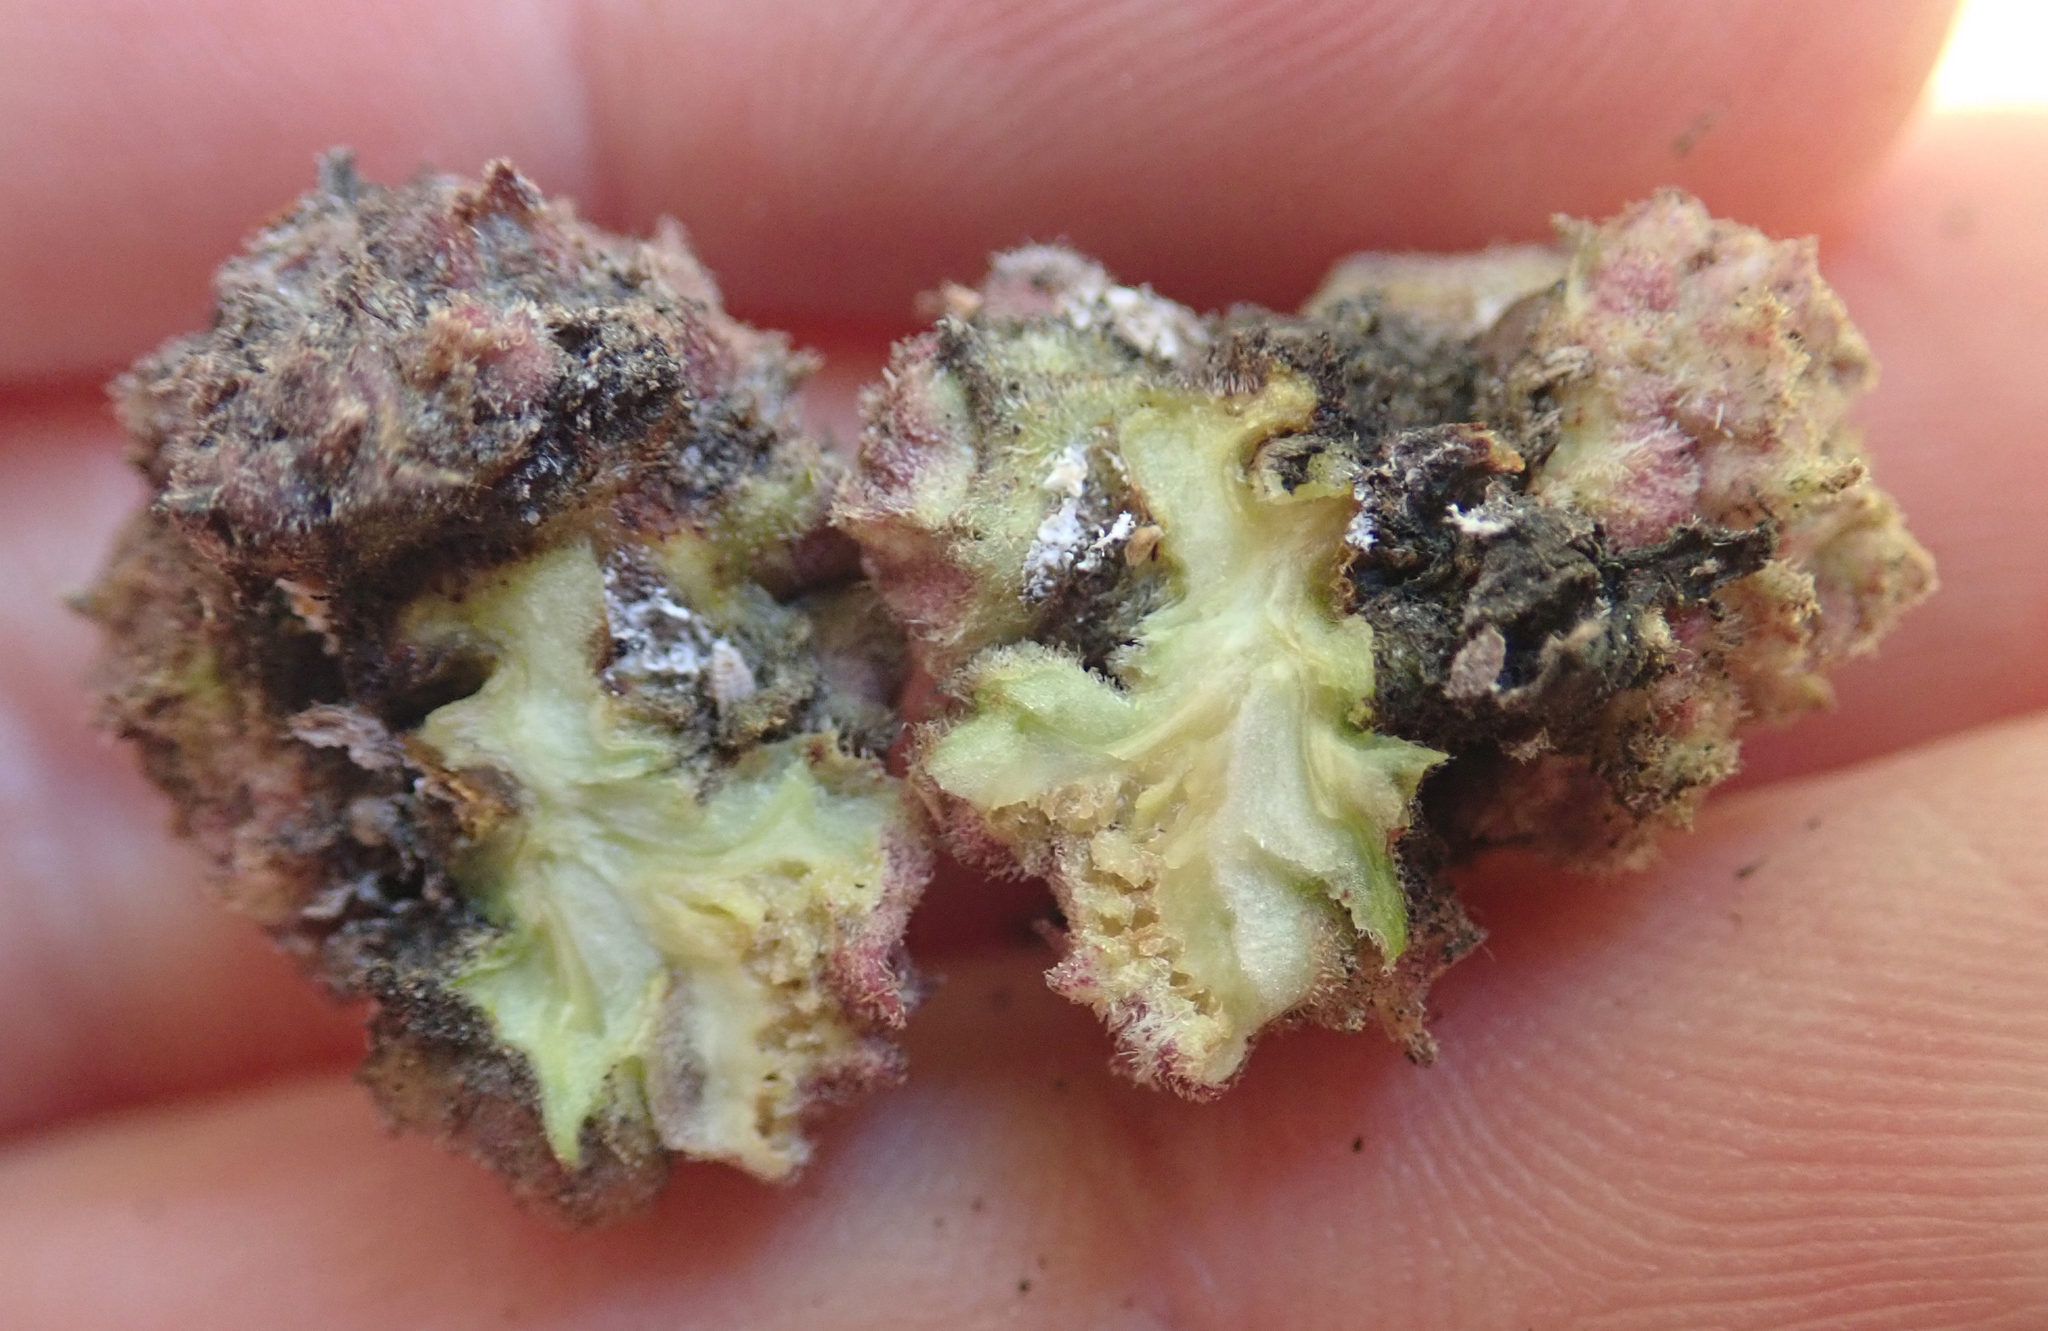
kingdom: Animalia
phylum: Arthropoda
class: Arachnida
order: Trombidiformes
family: Eriophyidae
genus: Acalitus
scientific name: Acalitus
